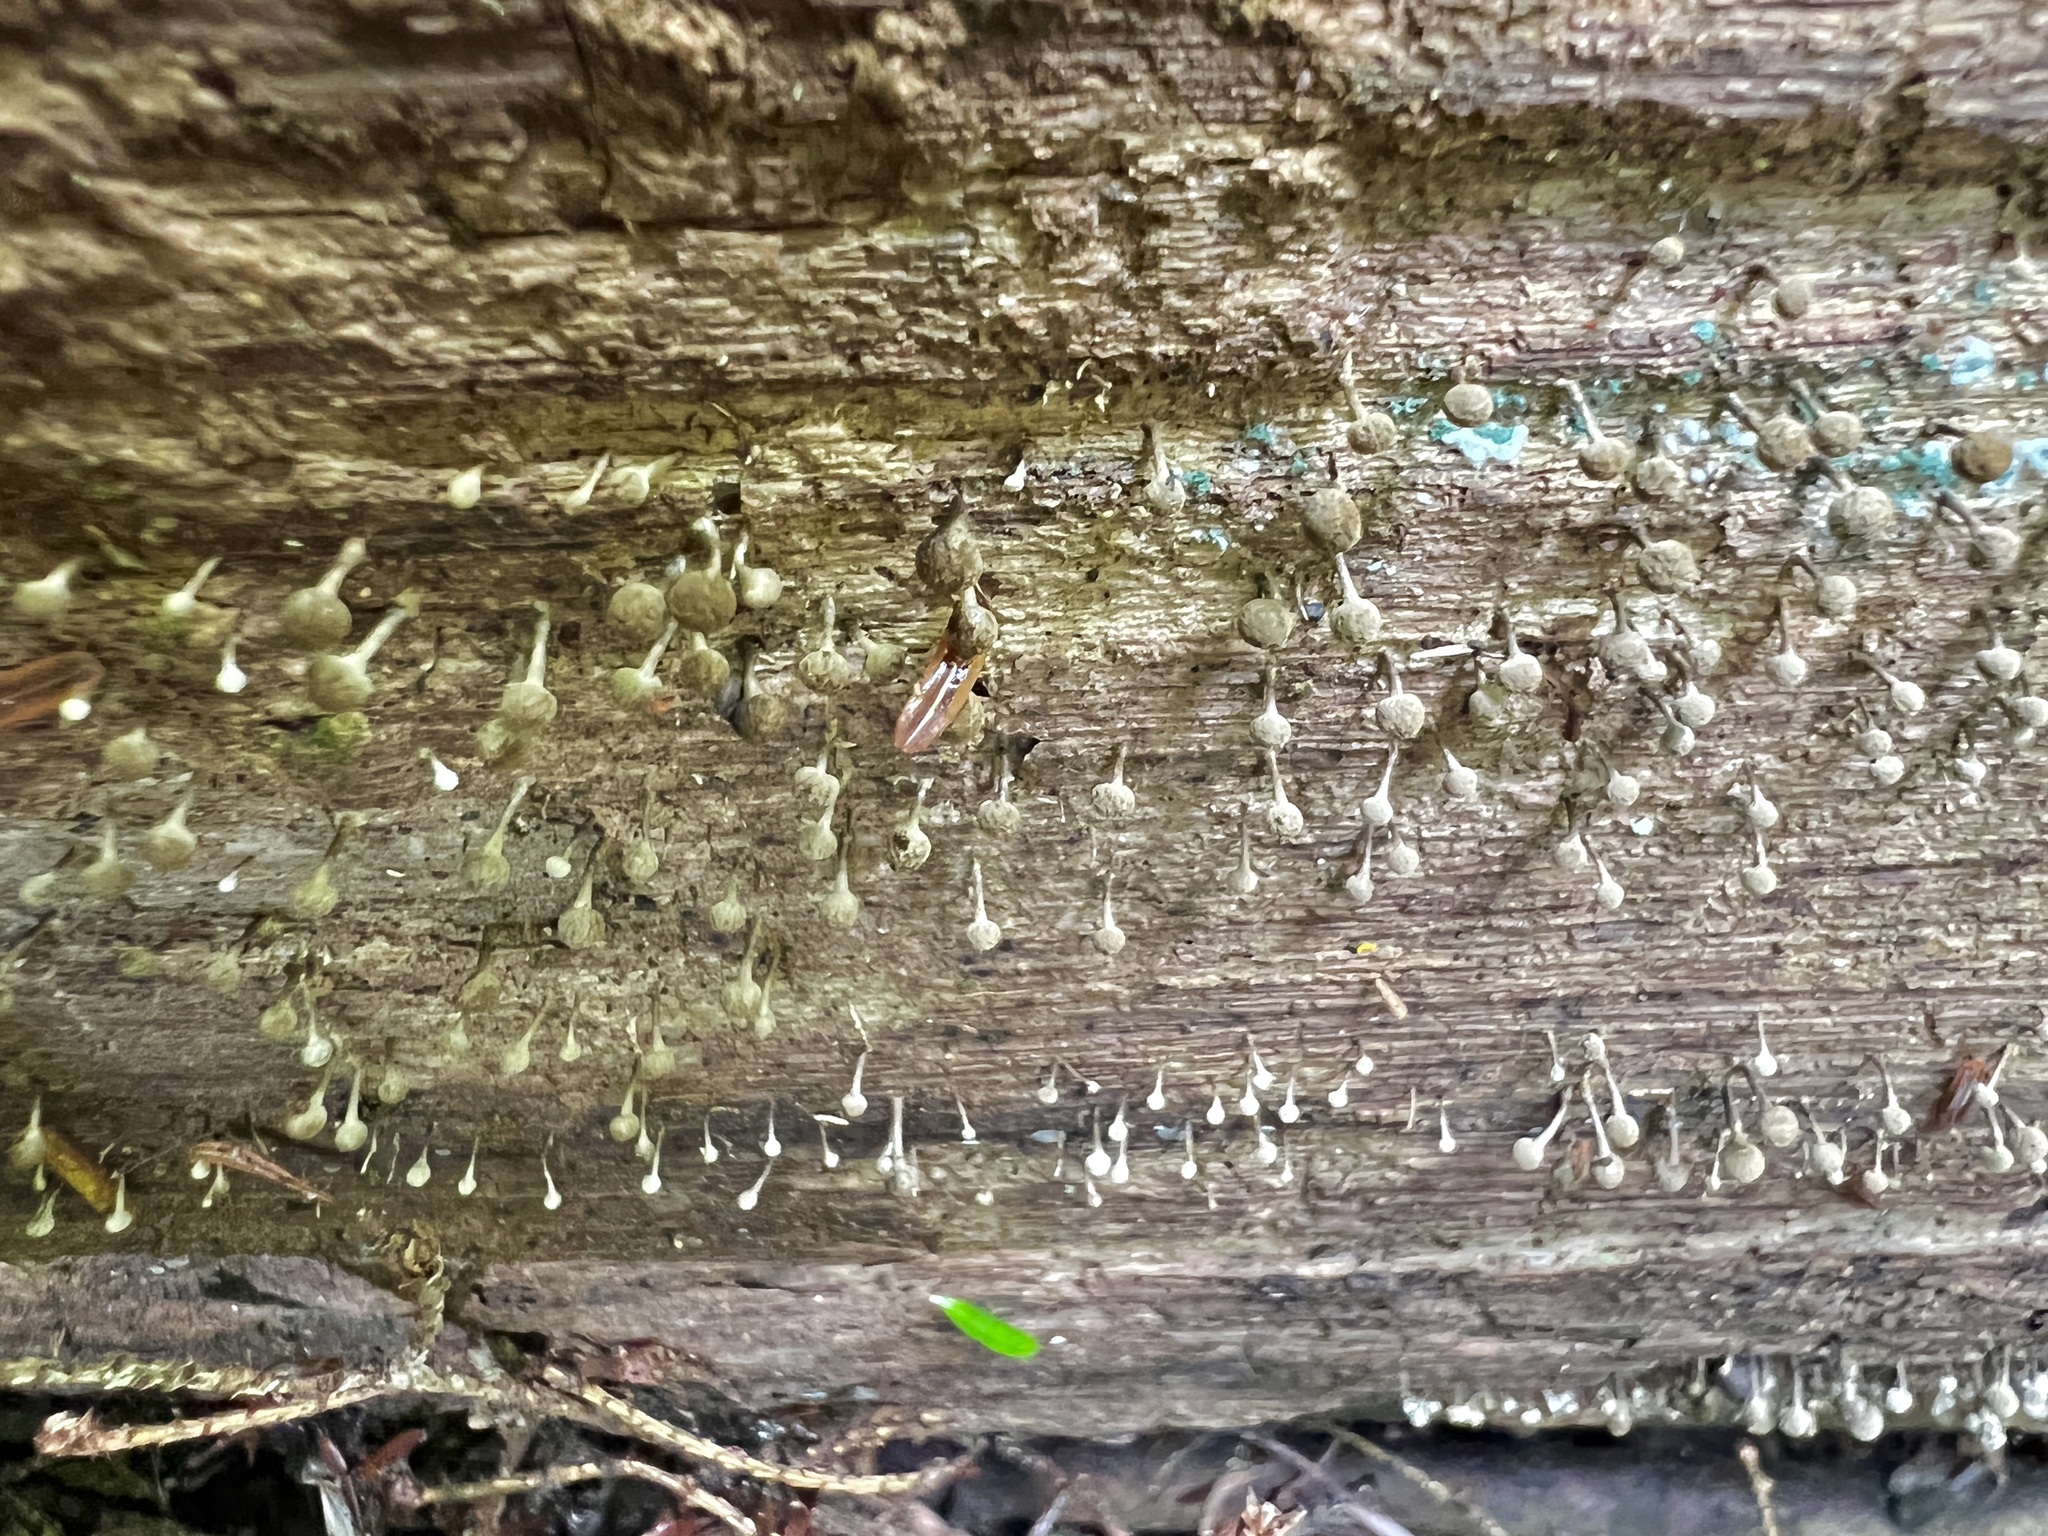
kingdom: Fungi
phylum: Basidiomycota
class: Atractiellomycetes
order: Atractiellales
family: Phleogenaceae
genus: Phleogena
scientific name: Phleogena faginea
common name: Fenugreek stalkball
